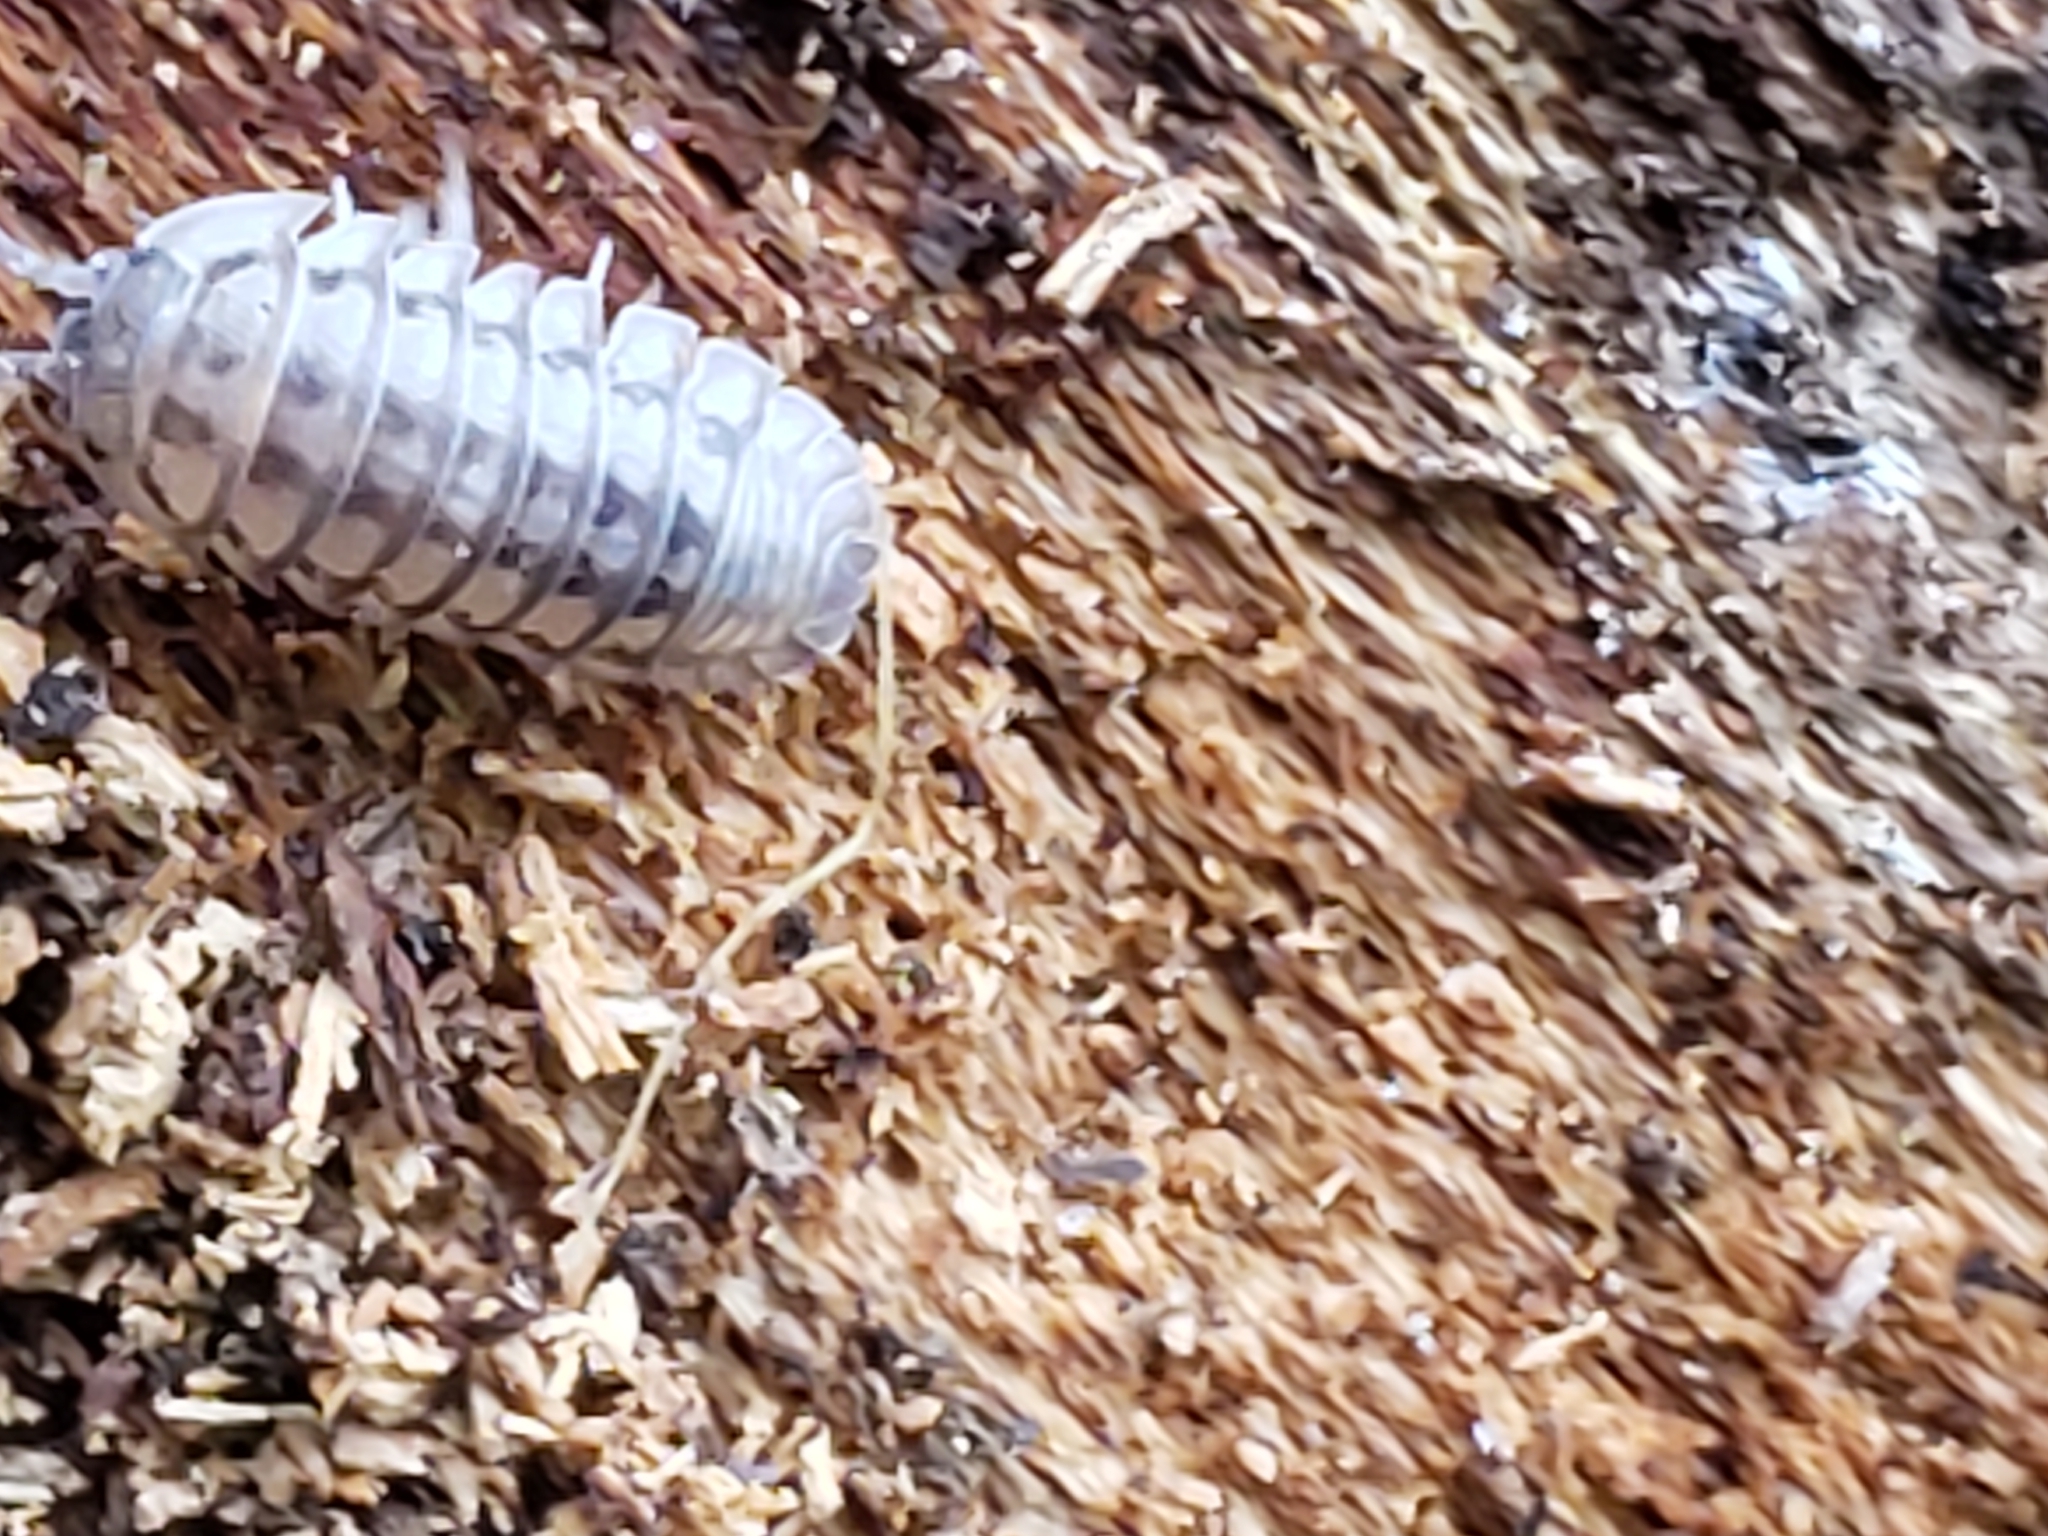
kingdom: Animalia
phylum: Arthropoda
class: Malacostraca
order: Isopoda
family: Armadillidiidae
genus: Armadillidium
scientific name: Armadillidium nasatum
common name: Isopod
